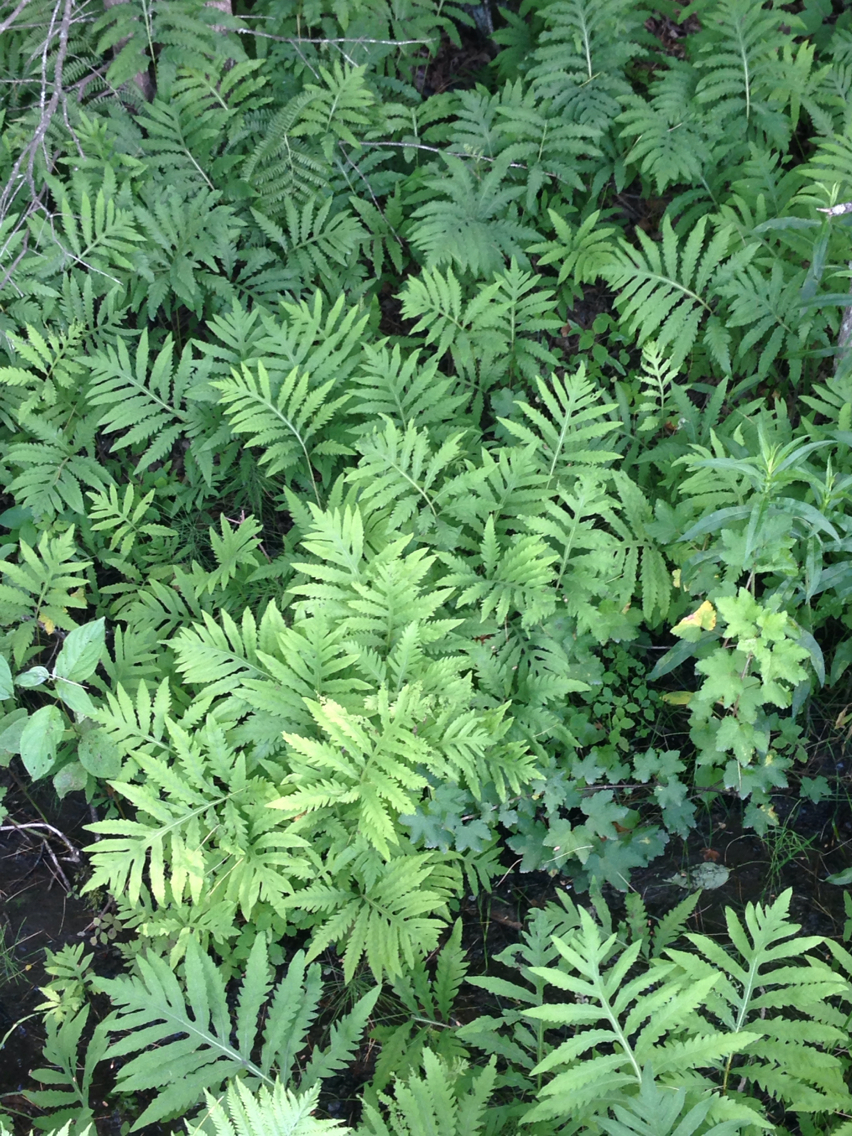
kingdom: Plantae
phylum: Tracheophyta
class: Polypodiopsida
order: Polypodiales
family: Onocleaceae
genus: Onoclea
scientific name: Onoclea sensibilis
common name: Sensitive fern
